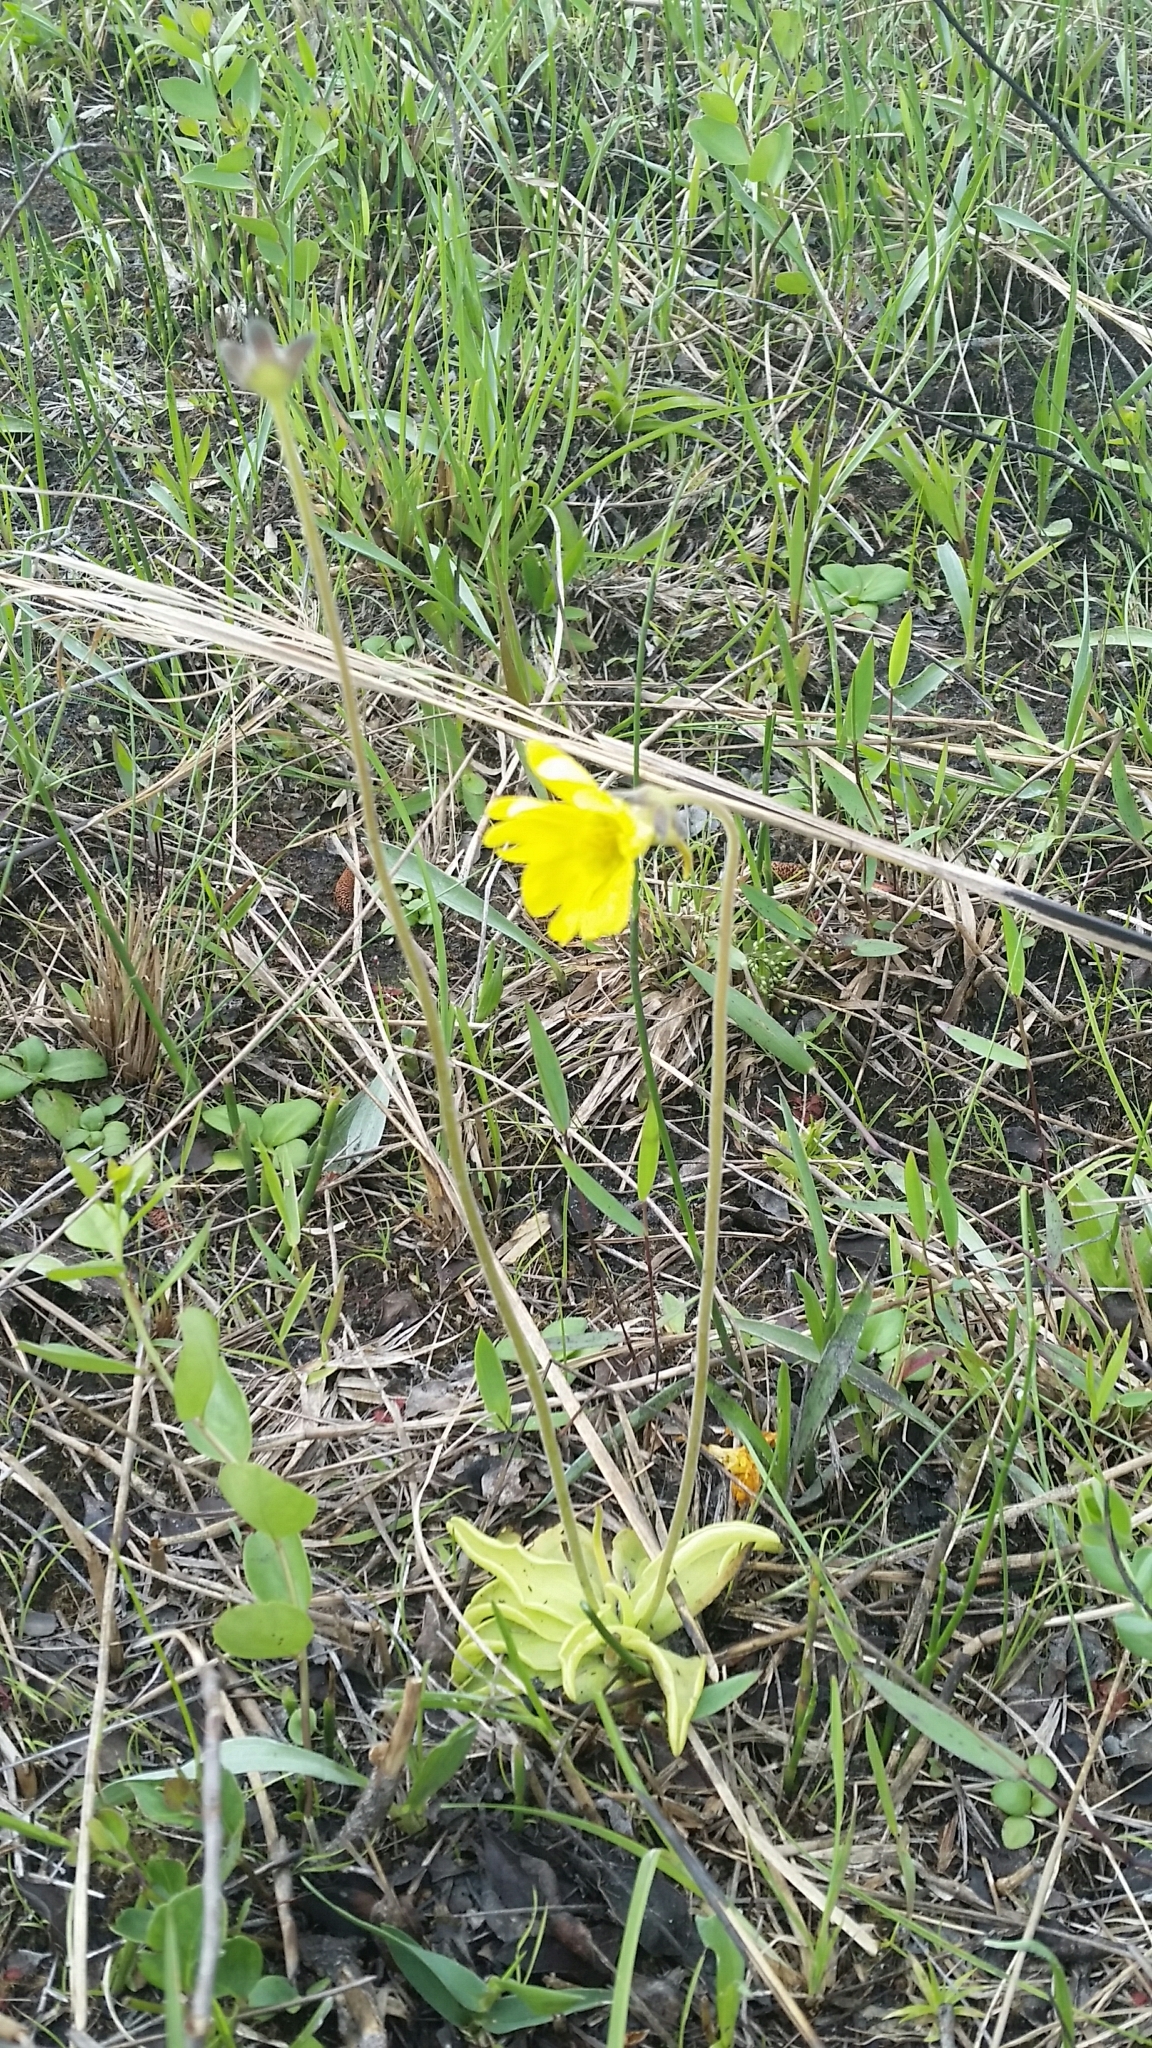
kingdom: Plantae
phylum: Tracheophyta
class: Magnoliopsida
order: Lamiales
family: Lentibulariaceae
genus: Pinguicula
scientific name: Pinguicula lutea
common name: Yellow butterwort
